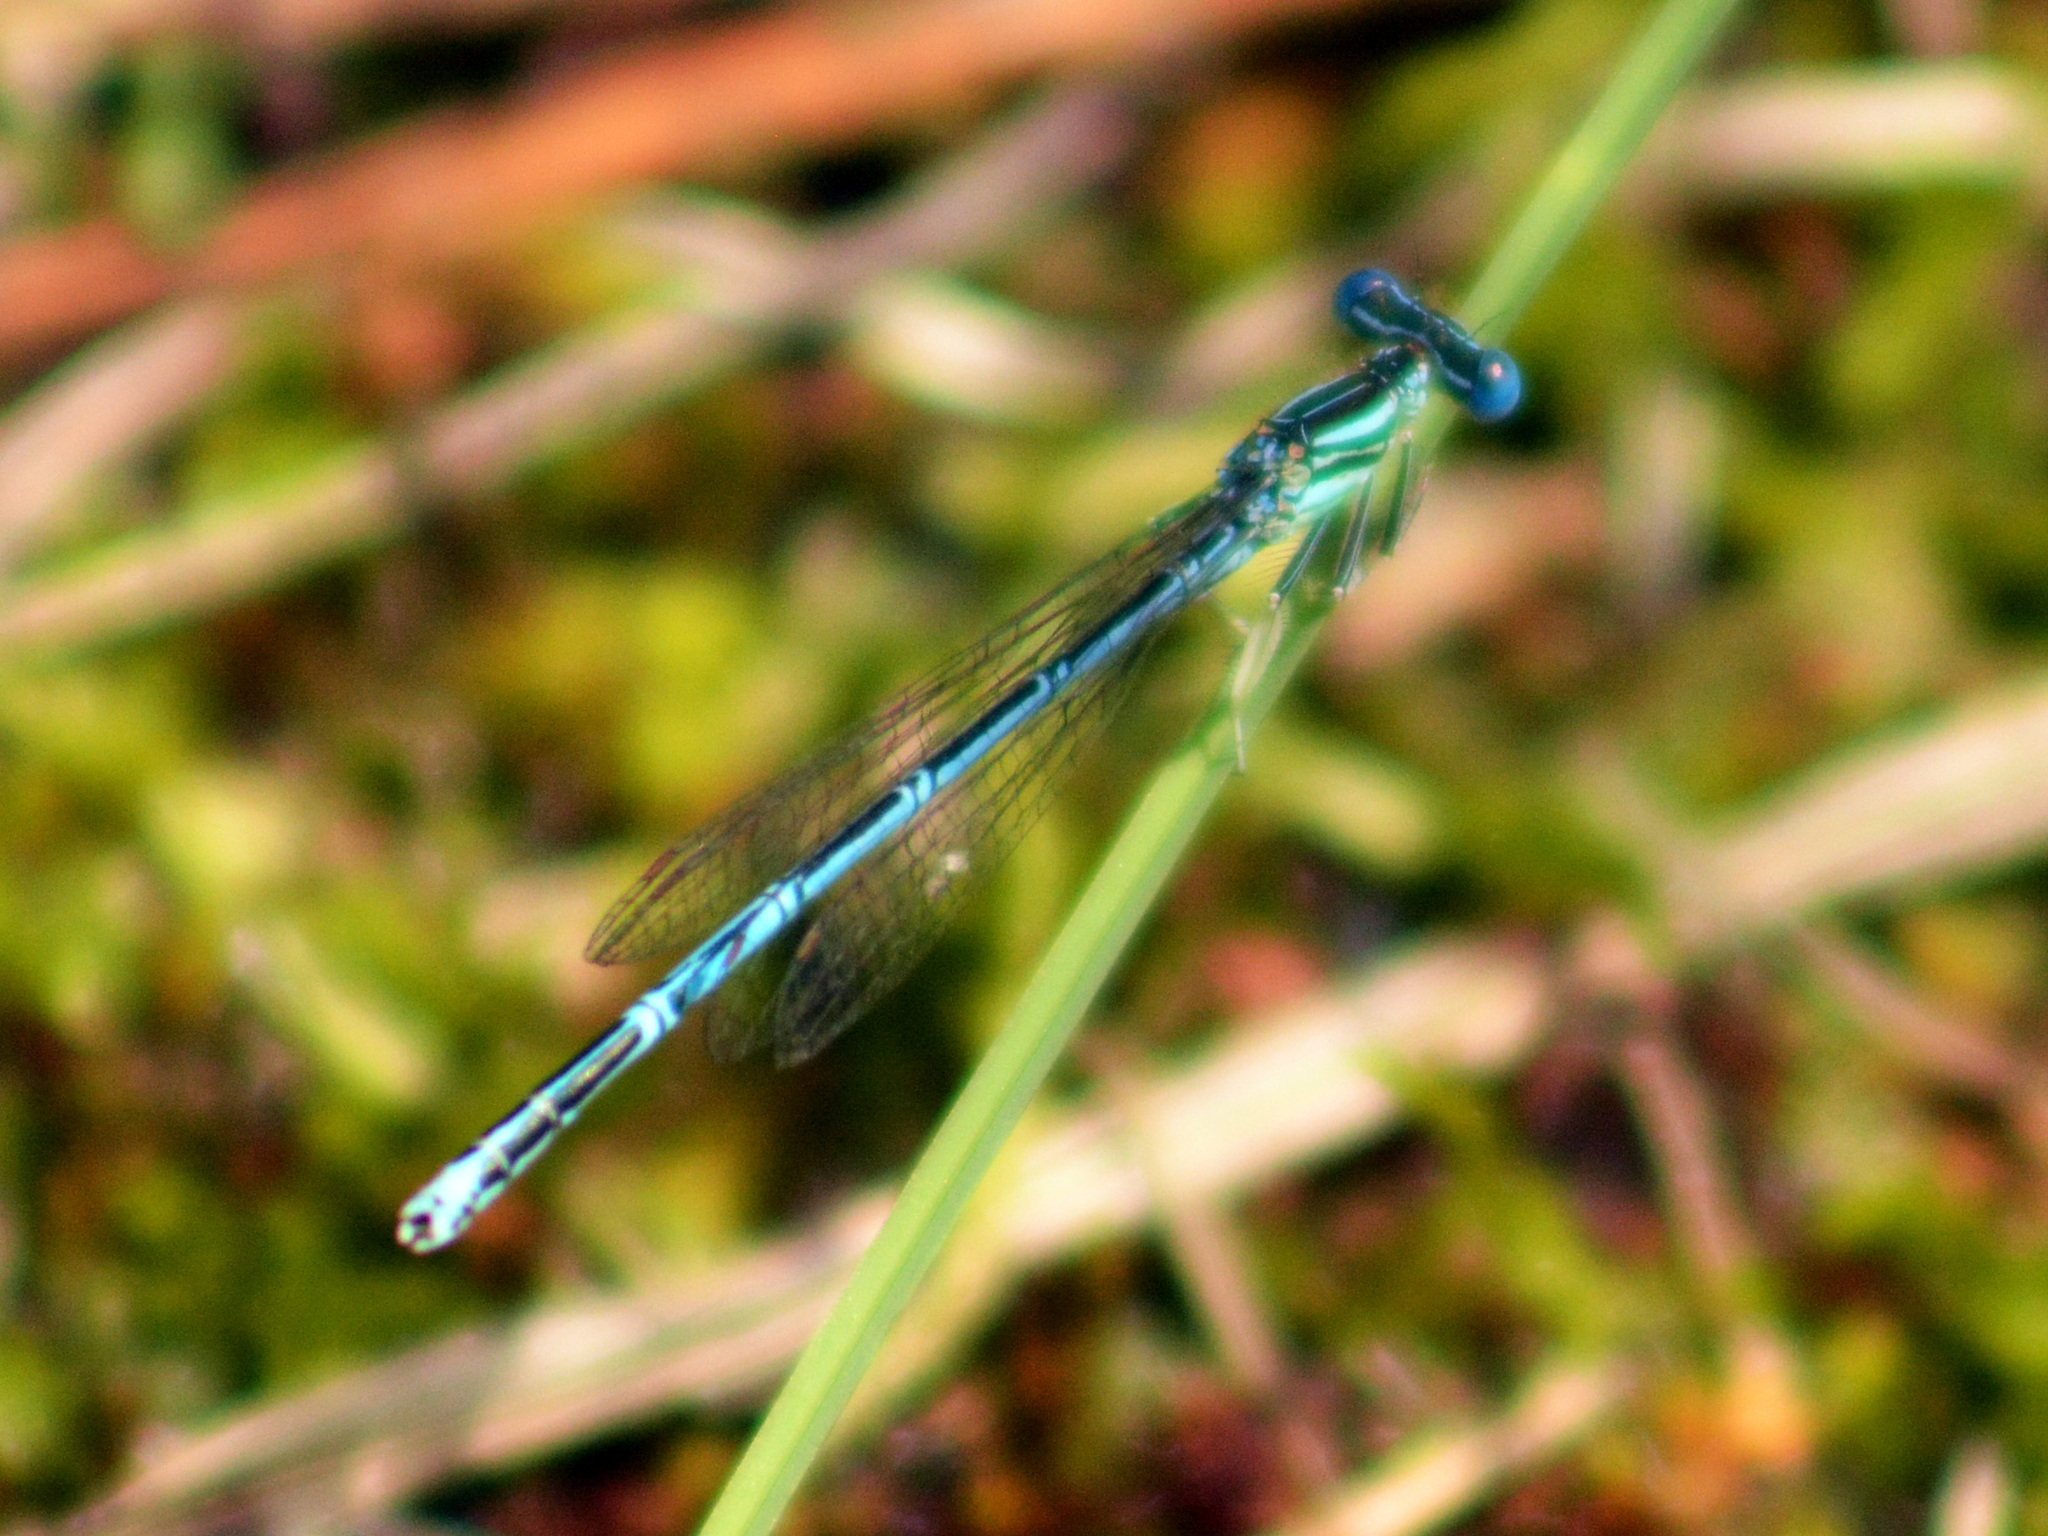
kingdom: Animalia
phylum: Arthropoda
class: Insecta
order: Odonata
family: Platycnemididae
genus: Platycnemis
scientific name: Platycnemis pennipes
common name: White-legged damselfly
